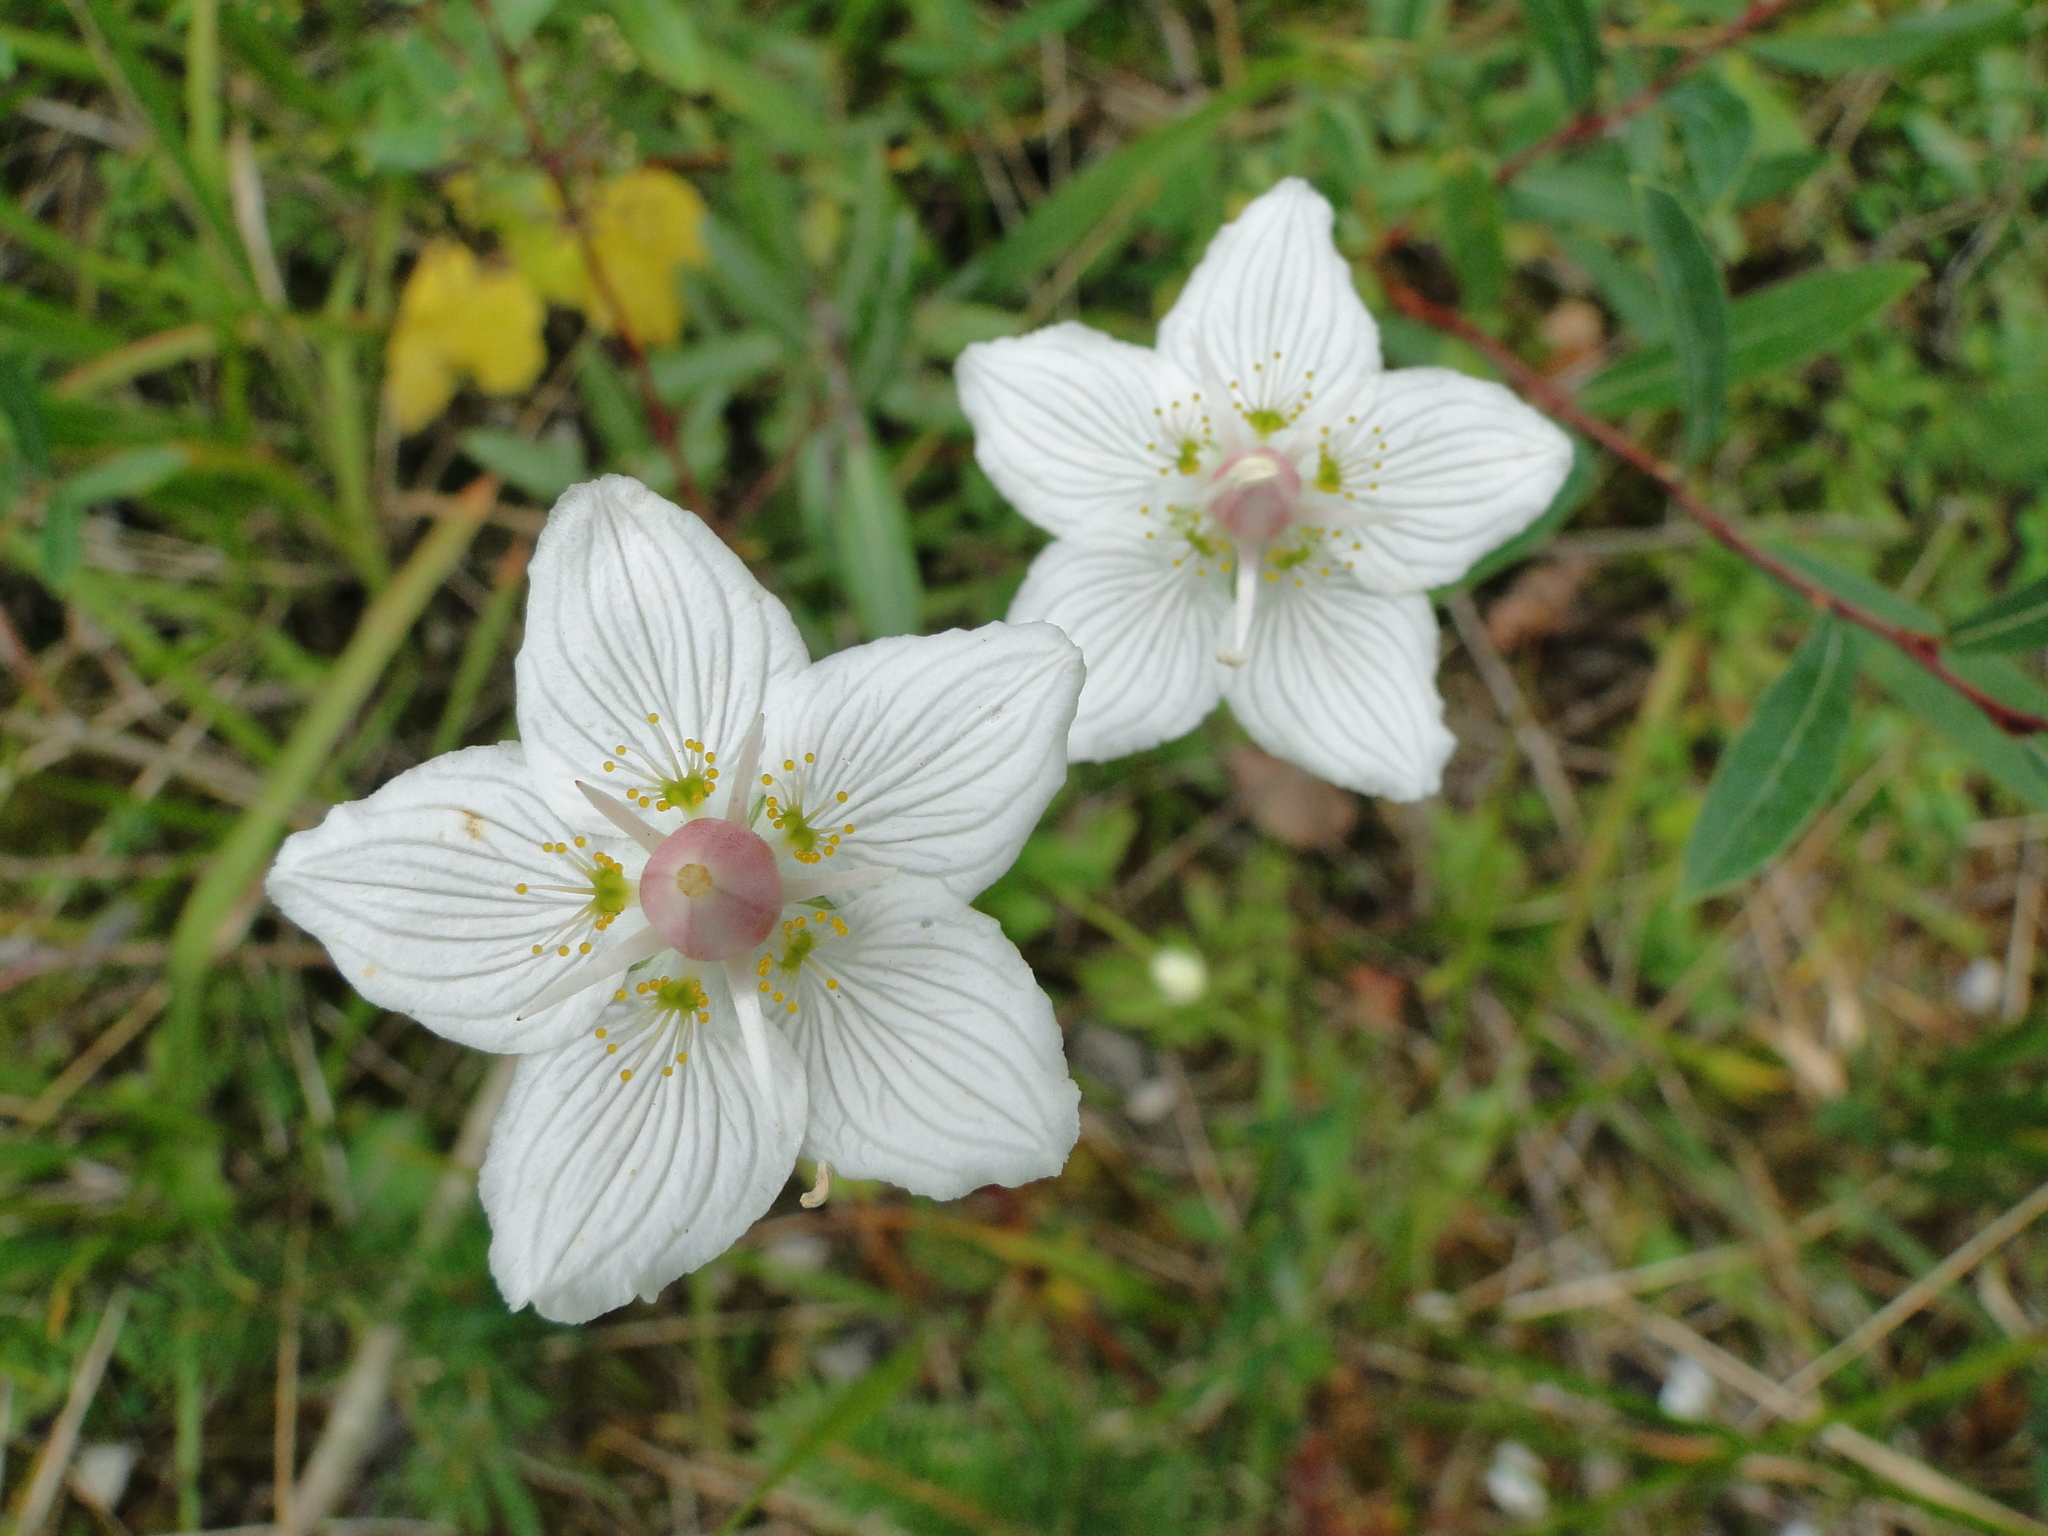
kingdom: Plantae
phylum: Tracheophyta
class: Magnoliopsida
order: Celastrales
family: Parnassiaceae
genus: Parnassia
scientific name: Parnassia palustris
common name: Grass-of-parnassus
